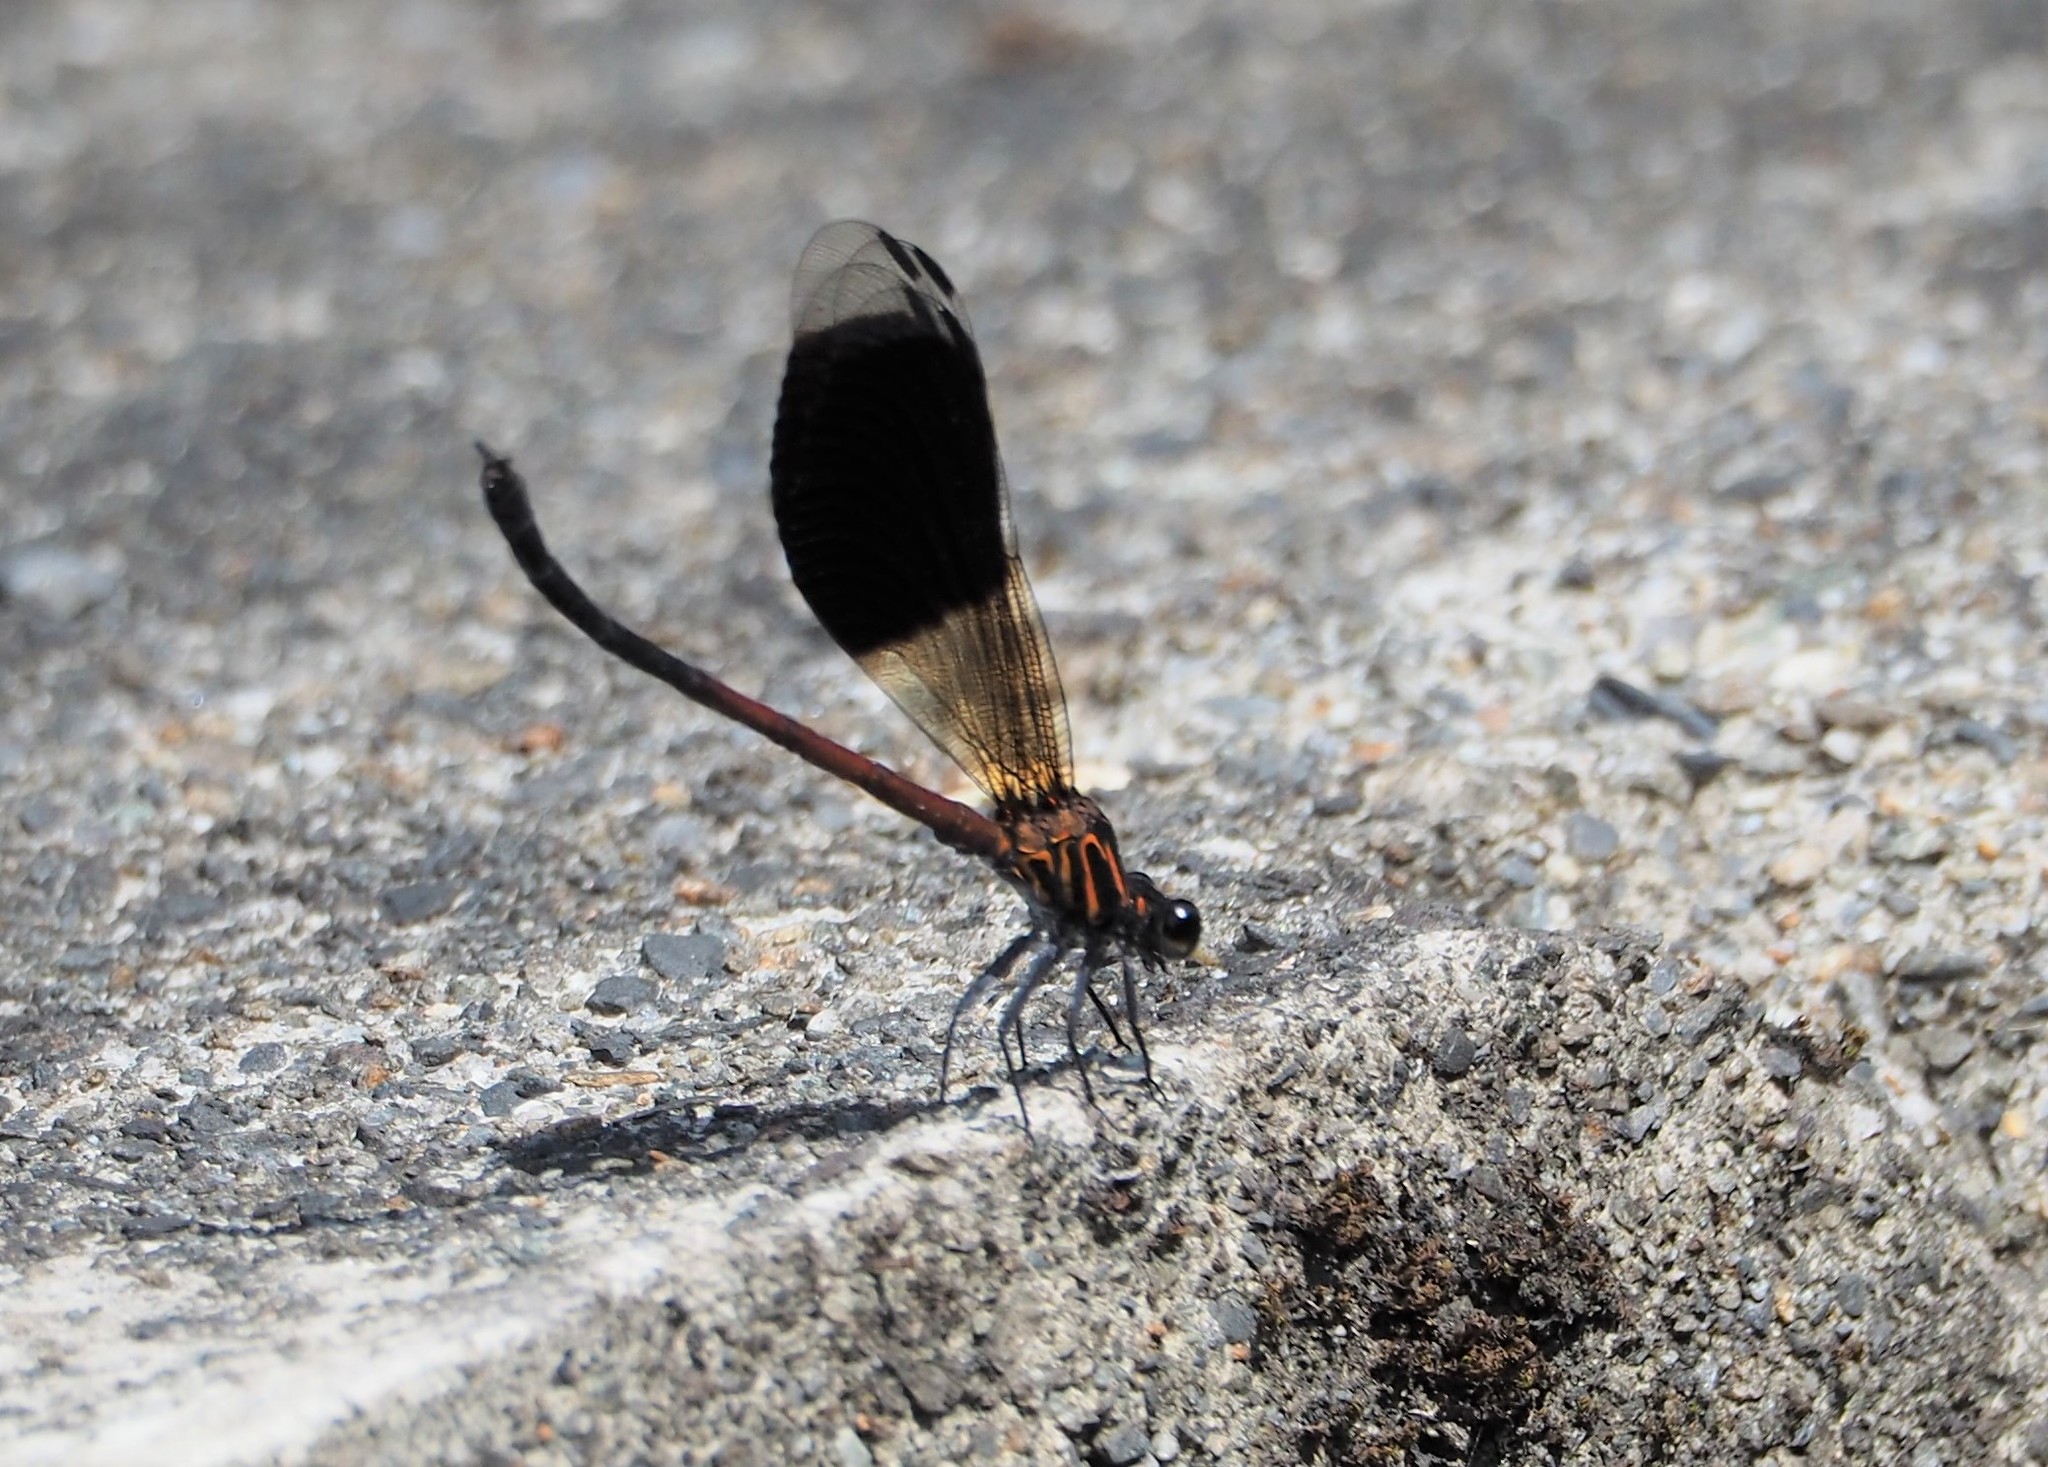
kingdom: Animalia
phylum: Arthropoda
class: Insecta
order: Odonata
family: Euphaeidae
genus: Euphaea
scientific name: Euphaea formosa
